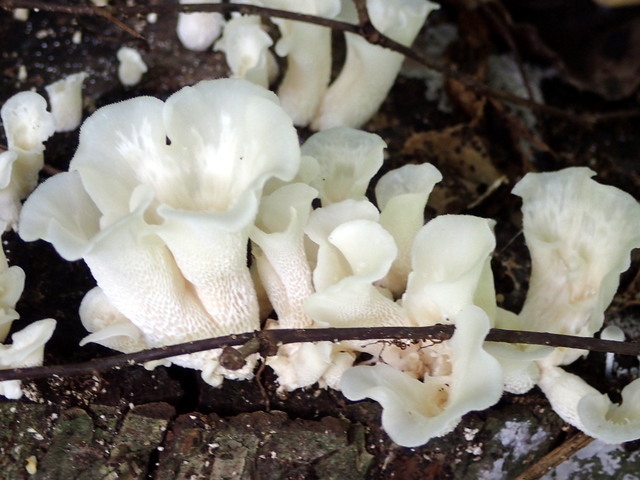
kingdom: Fungi
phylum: Basidiomycota
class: Agaricomycetes
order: Polyporales
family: Polyporaceae
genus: Favolus
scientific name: Favolus tenuiculus
